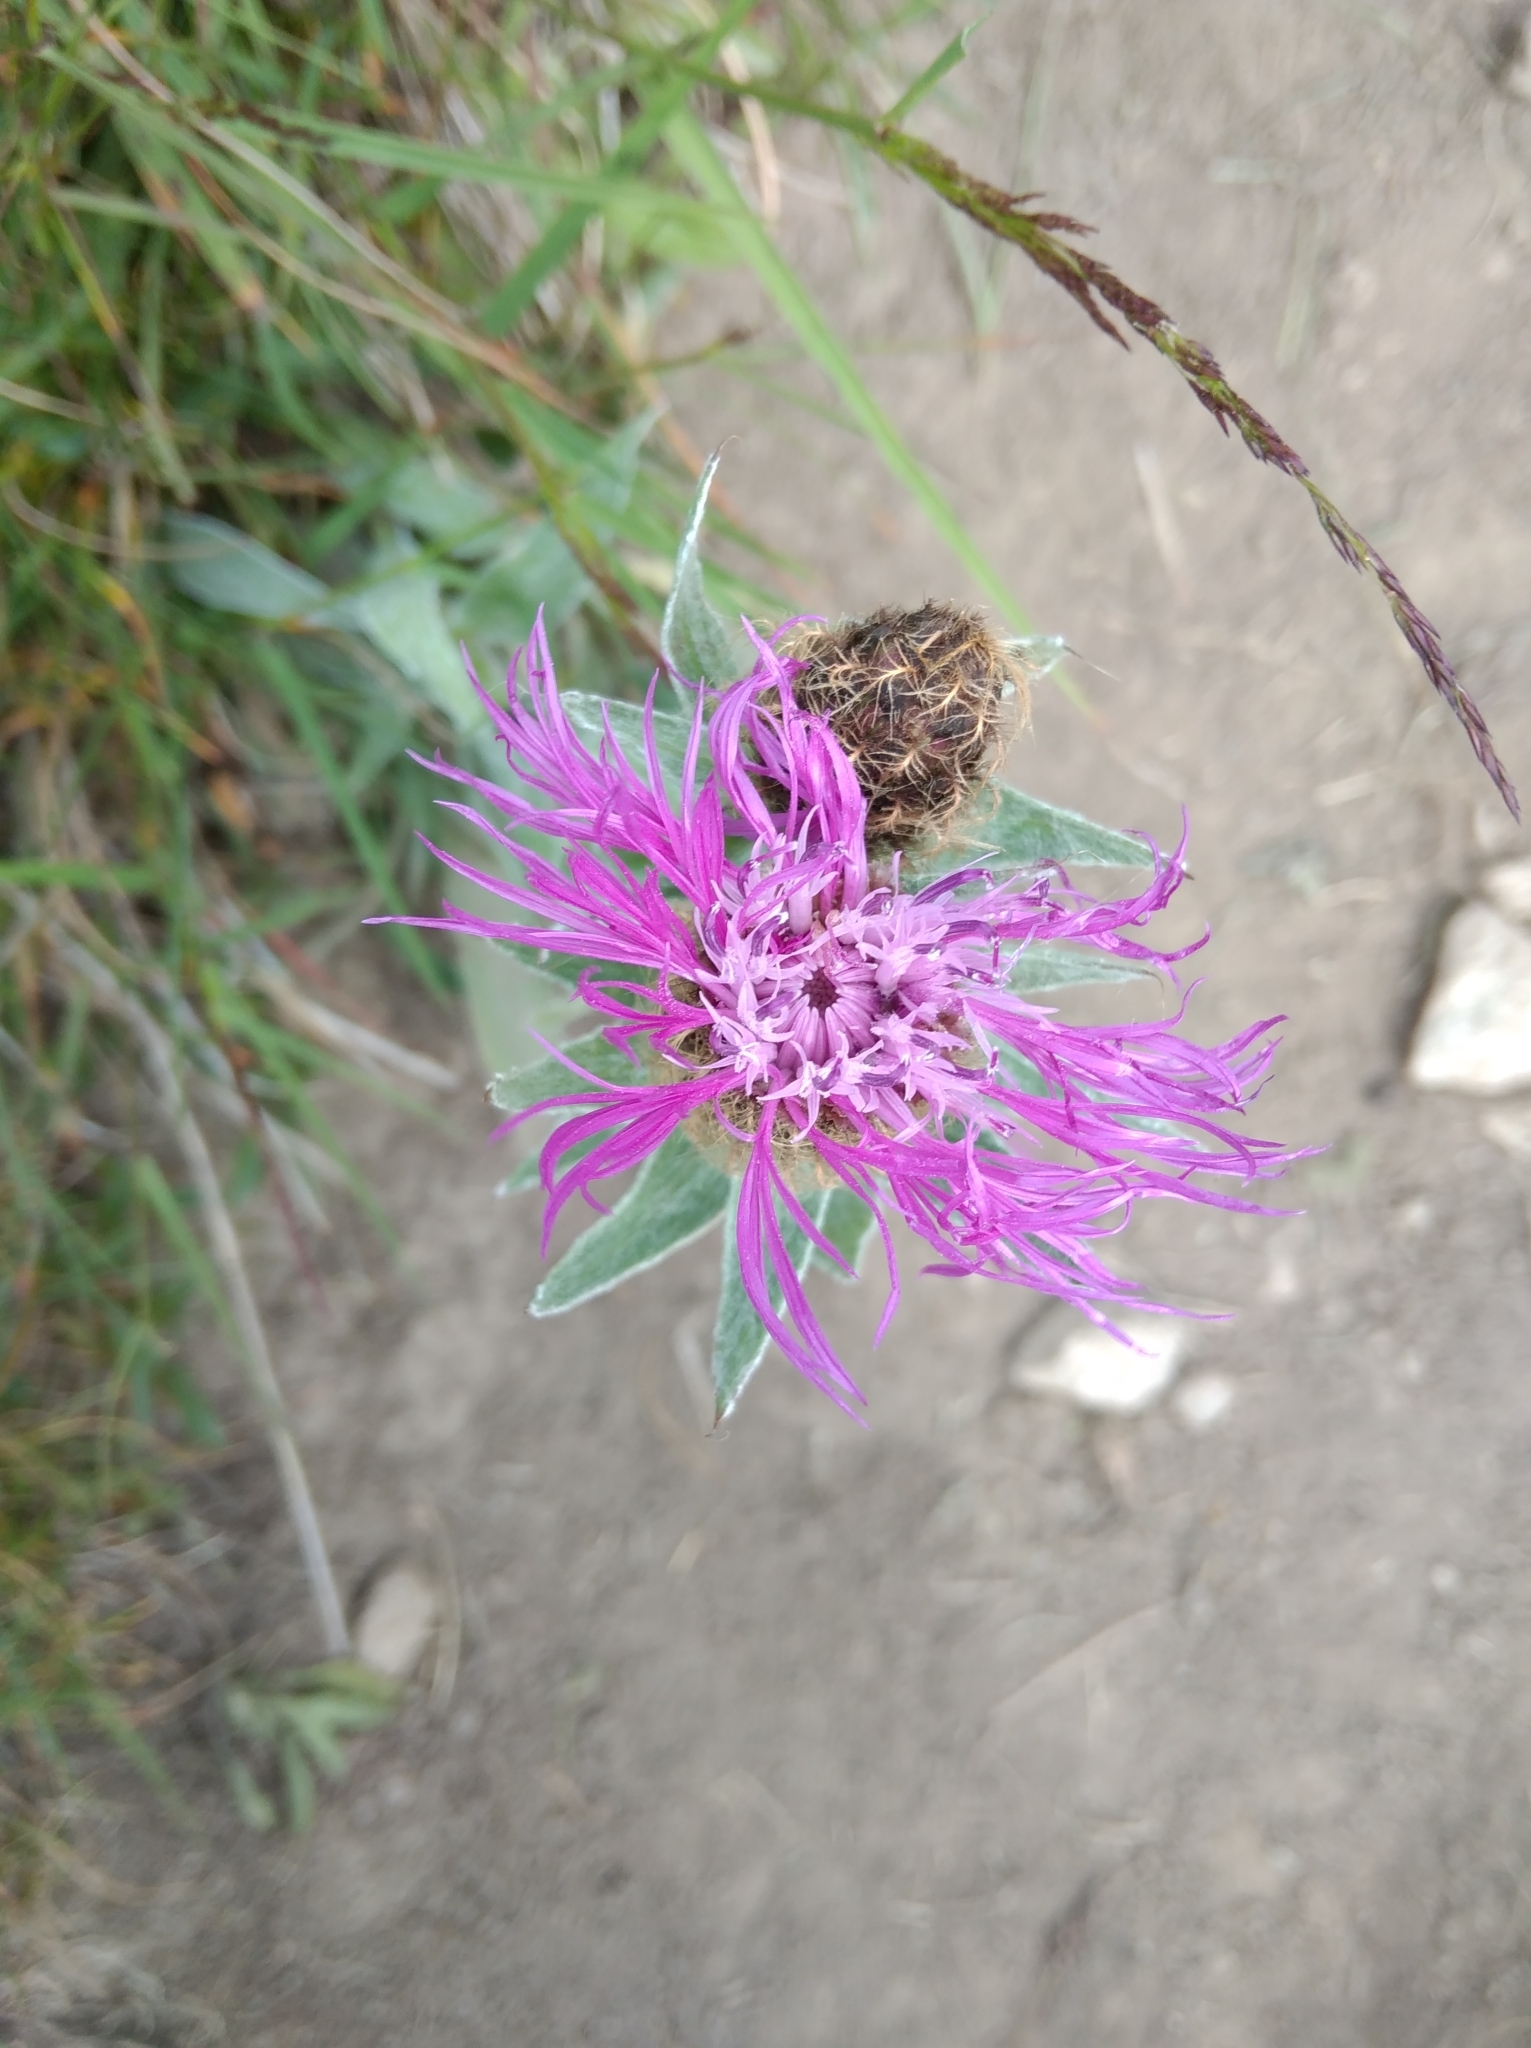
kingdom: Plantae
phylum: Tracheophyta
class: Magnoliopsida
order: Asterales
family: Asteraceae
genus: Centaurea
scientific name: Centaurea nervosa
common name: Singleflower knapweed
